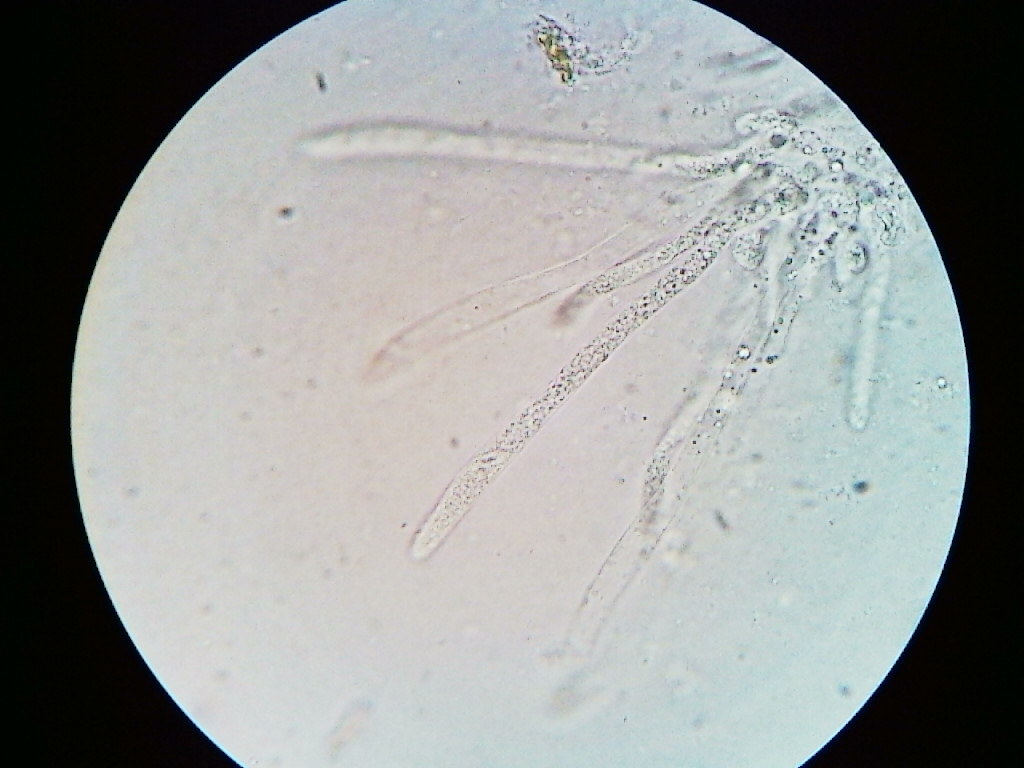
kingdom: Fungi
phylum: Ascomycota
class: Sordariomycetes
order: Hypocreales
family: Ophiocordycipitaceae
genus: Ophiocordyceps
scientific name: Ophiocordyceps stylophora
